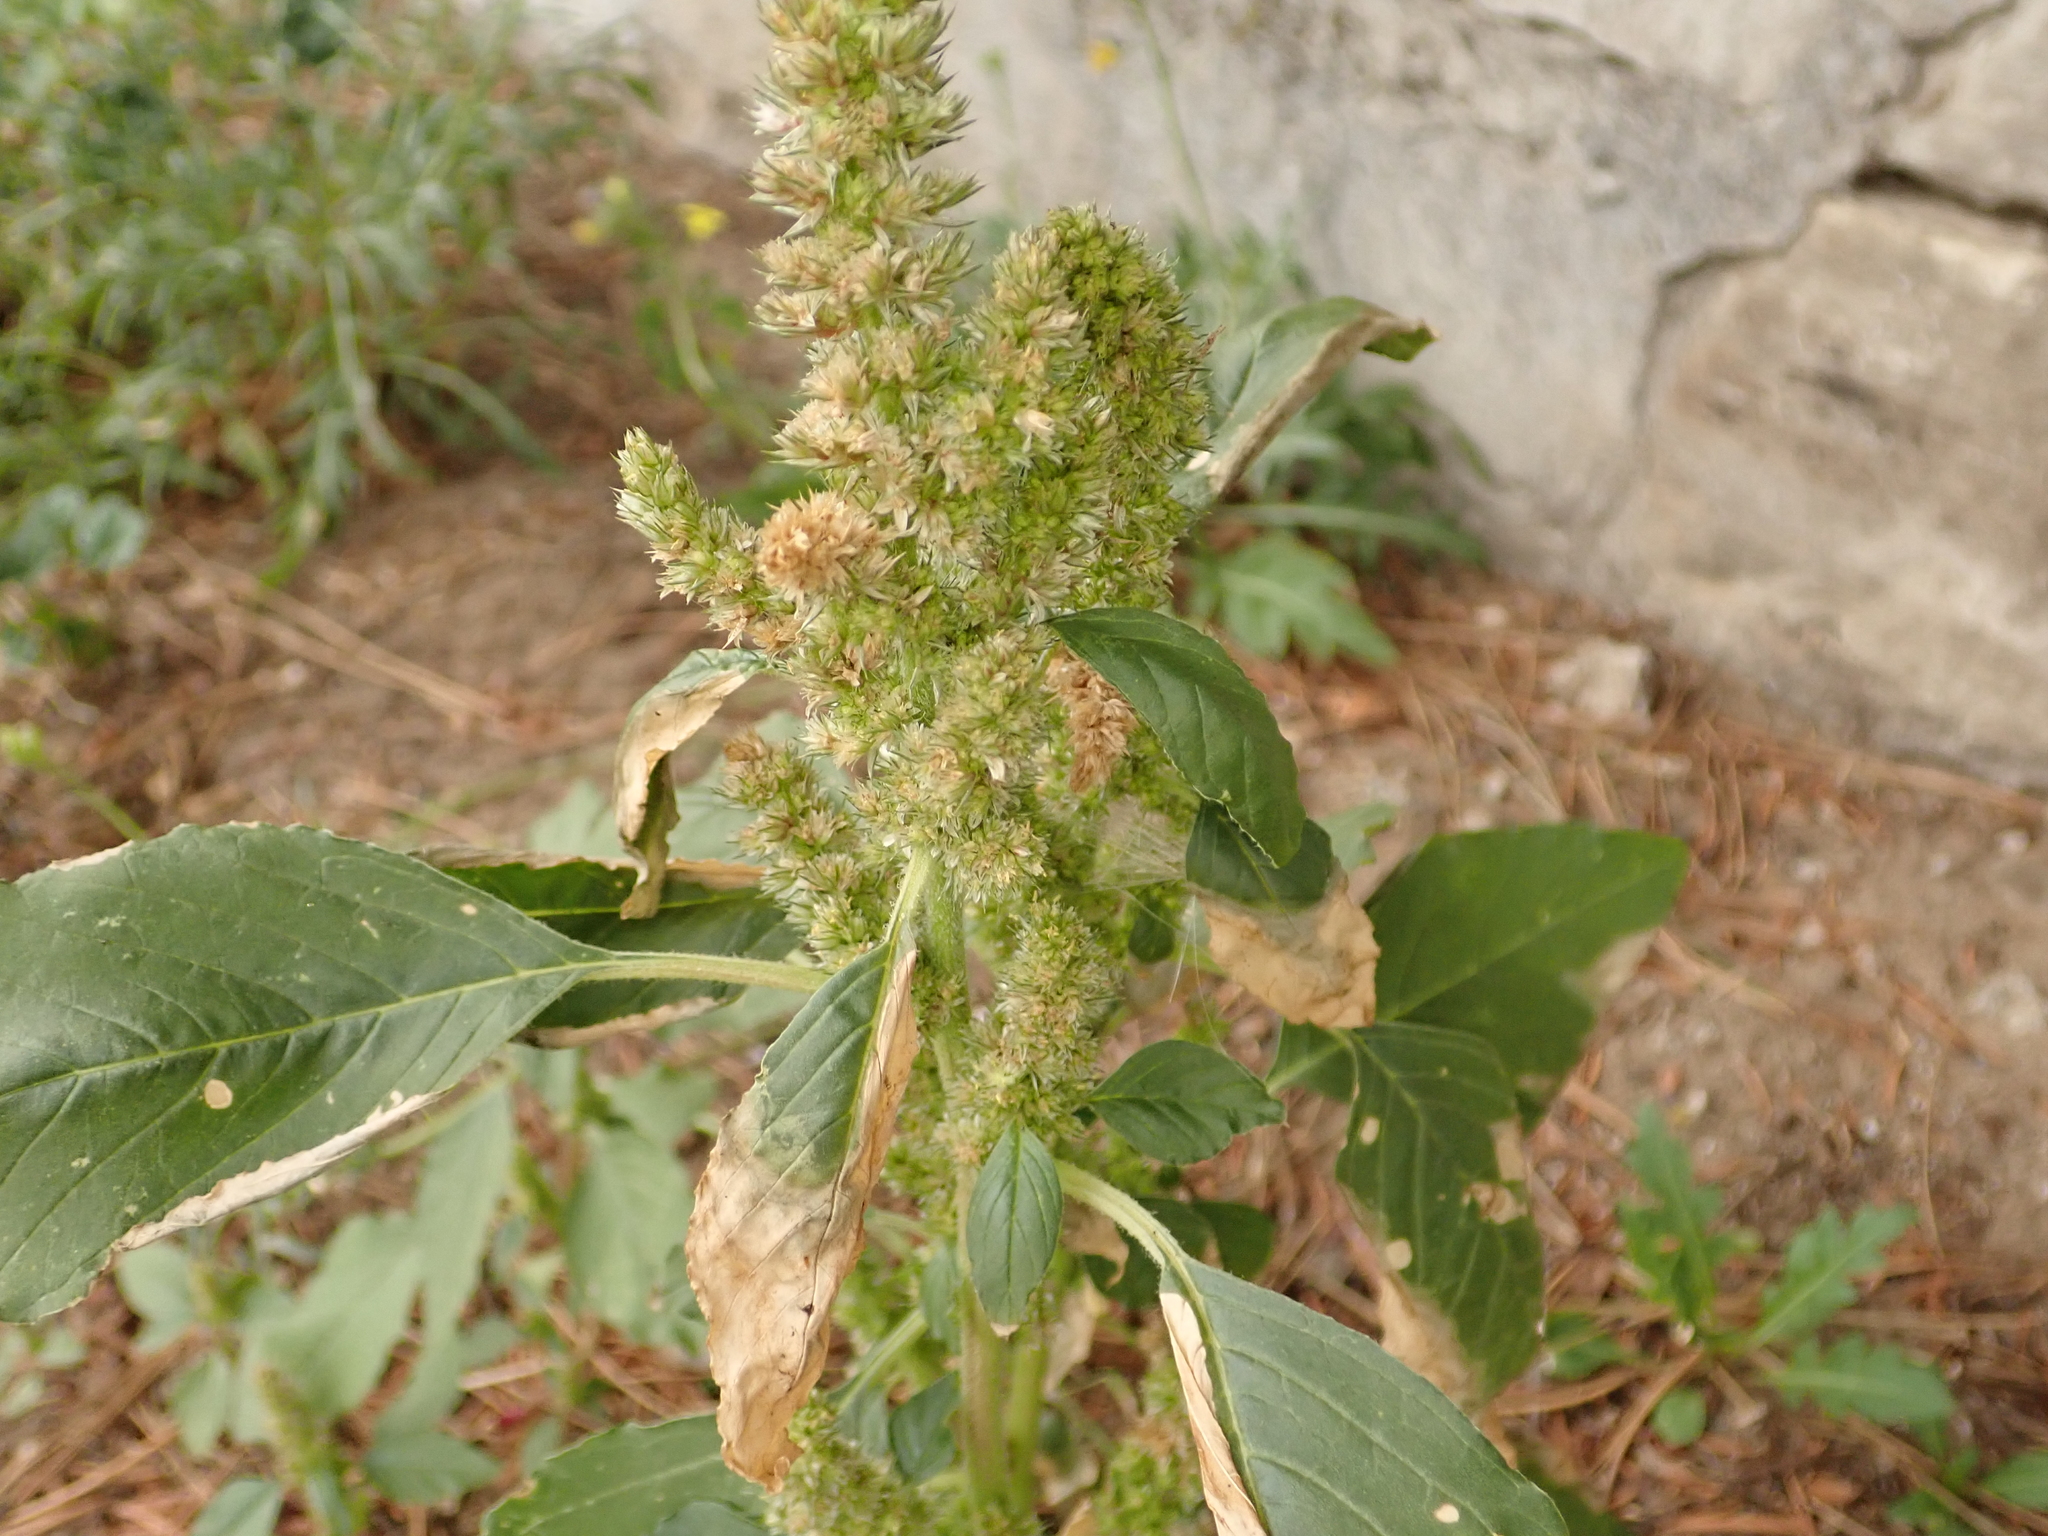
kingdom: Plantae
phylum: Tracheophyta
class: Magnoliopsida
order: Caryophyllales
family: Amaranthaceae
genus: Amaranthus
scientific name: Amaranthus retroflexus
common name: Redroot amaranth
